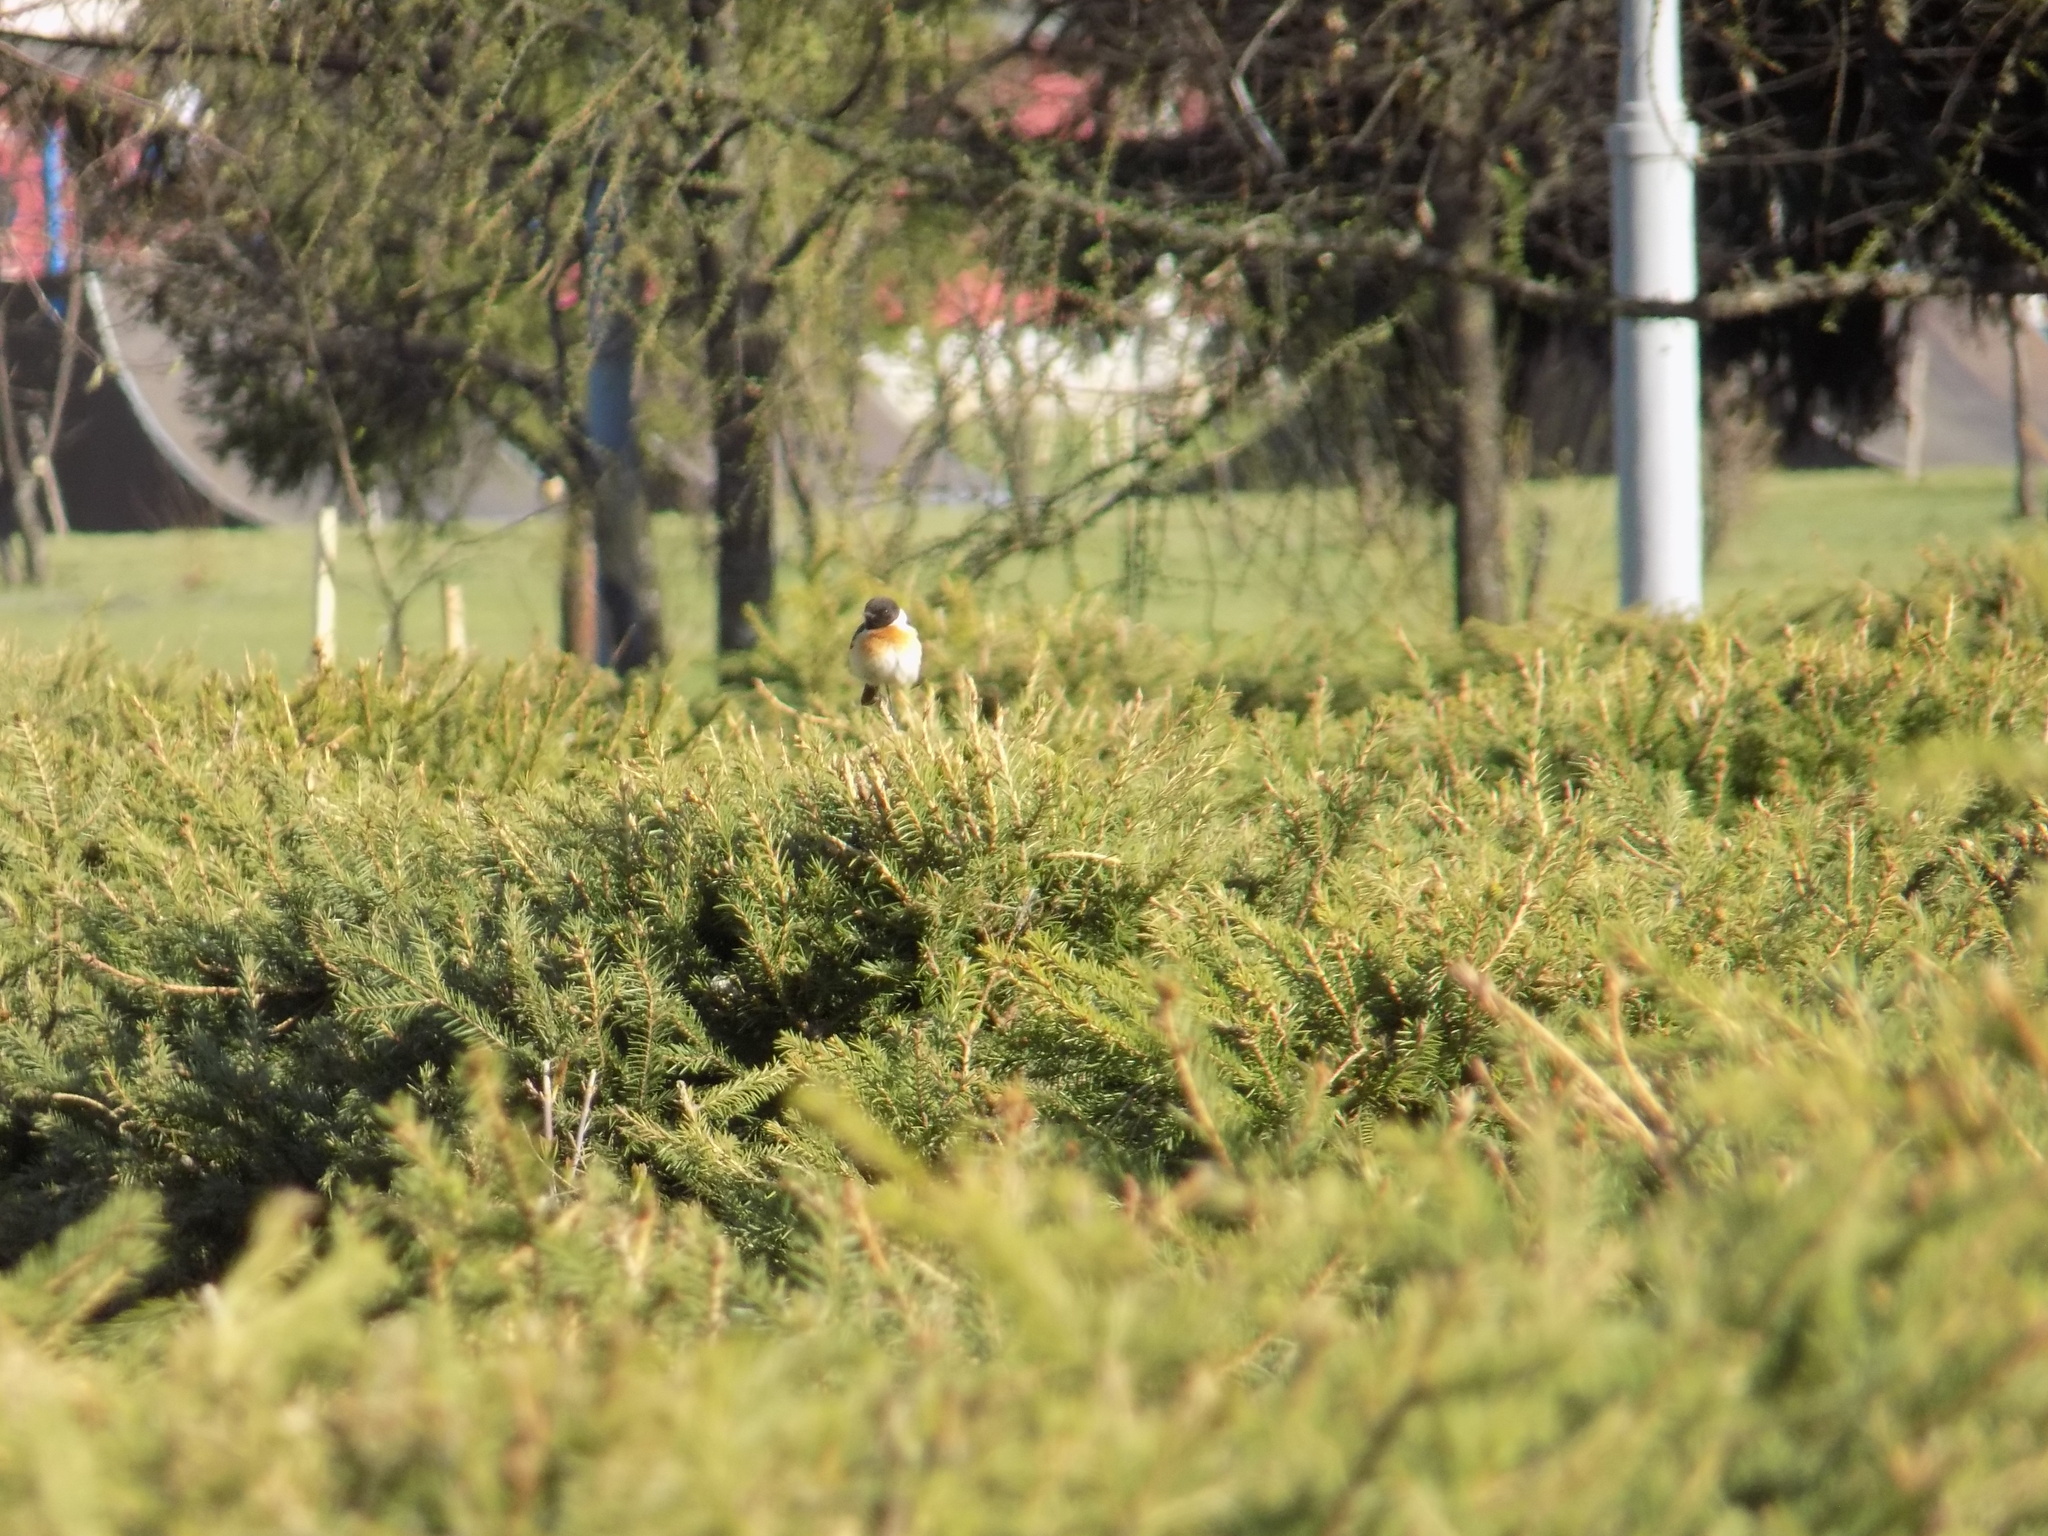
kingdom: Animalia
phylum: Chordata
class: Aves
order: Passeriformes
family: Muscicapidae
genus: Saxicola
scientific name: Saxicola maurus
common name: Siberian stonechat
